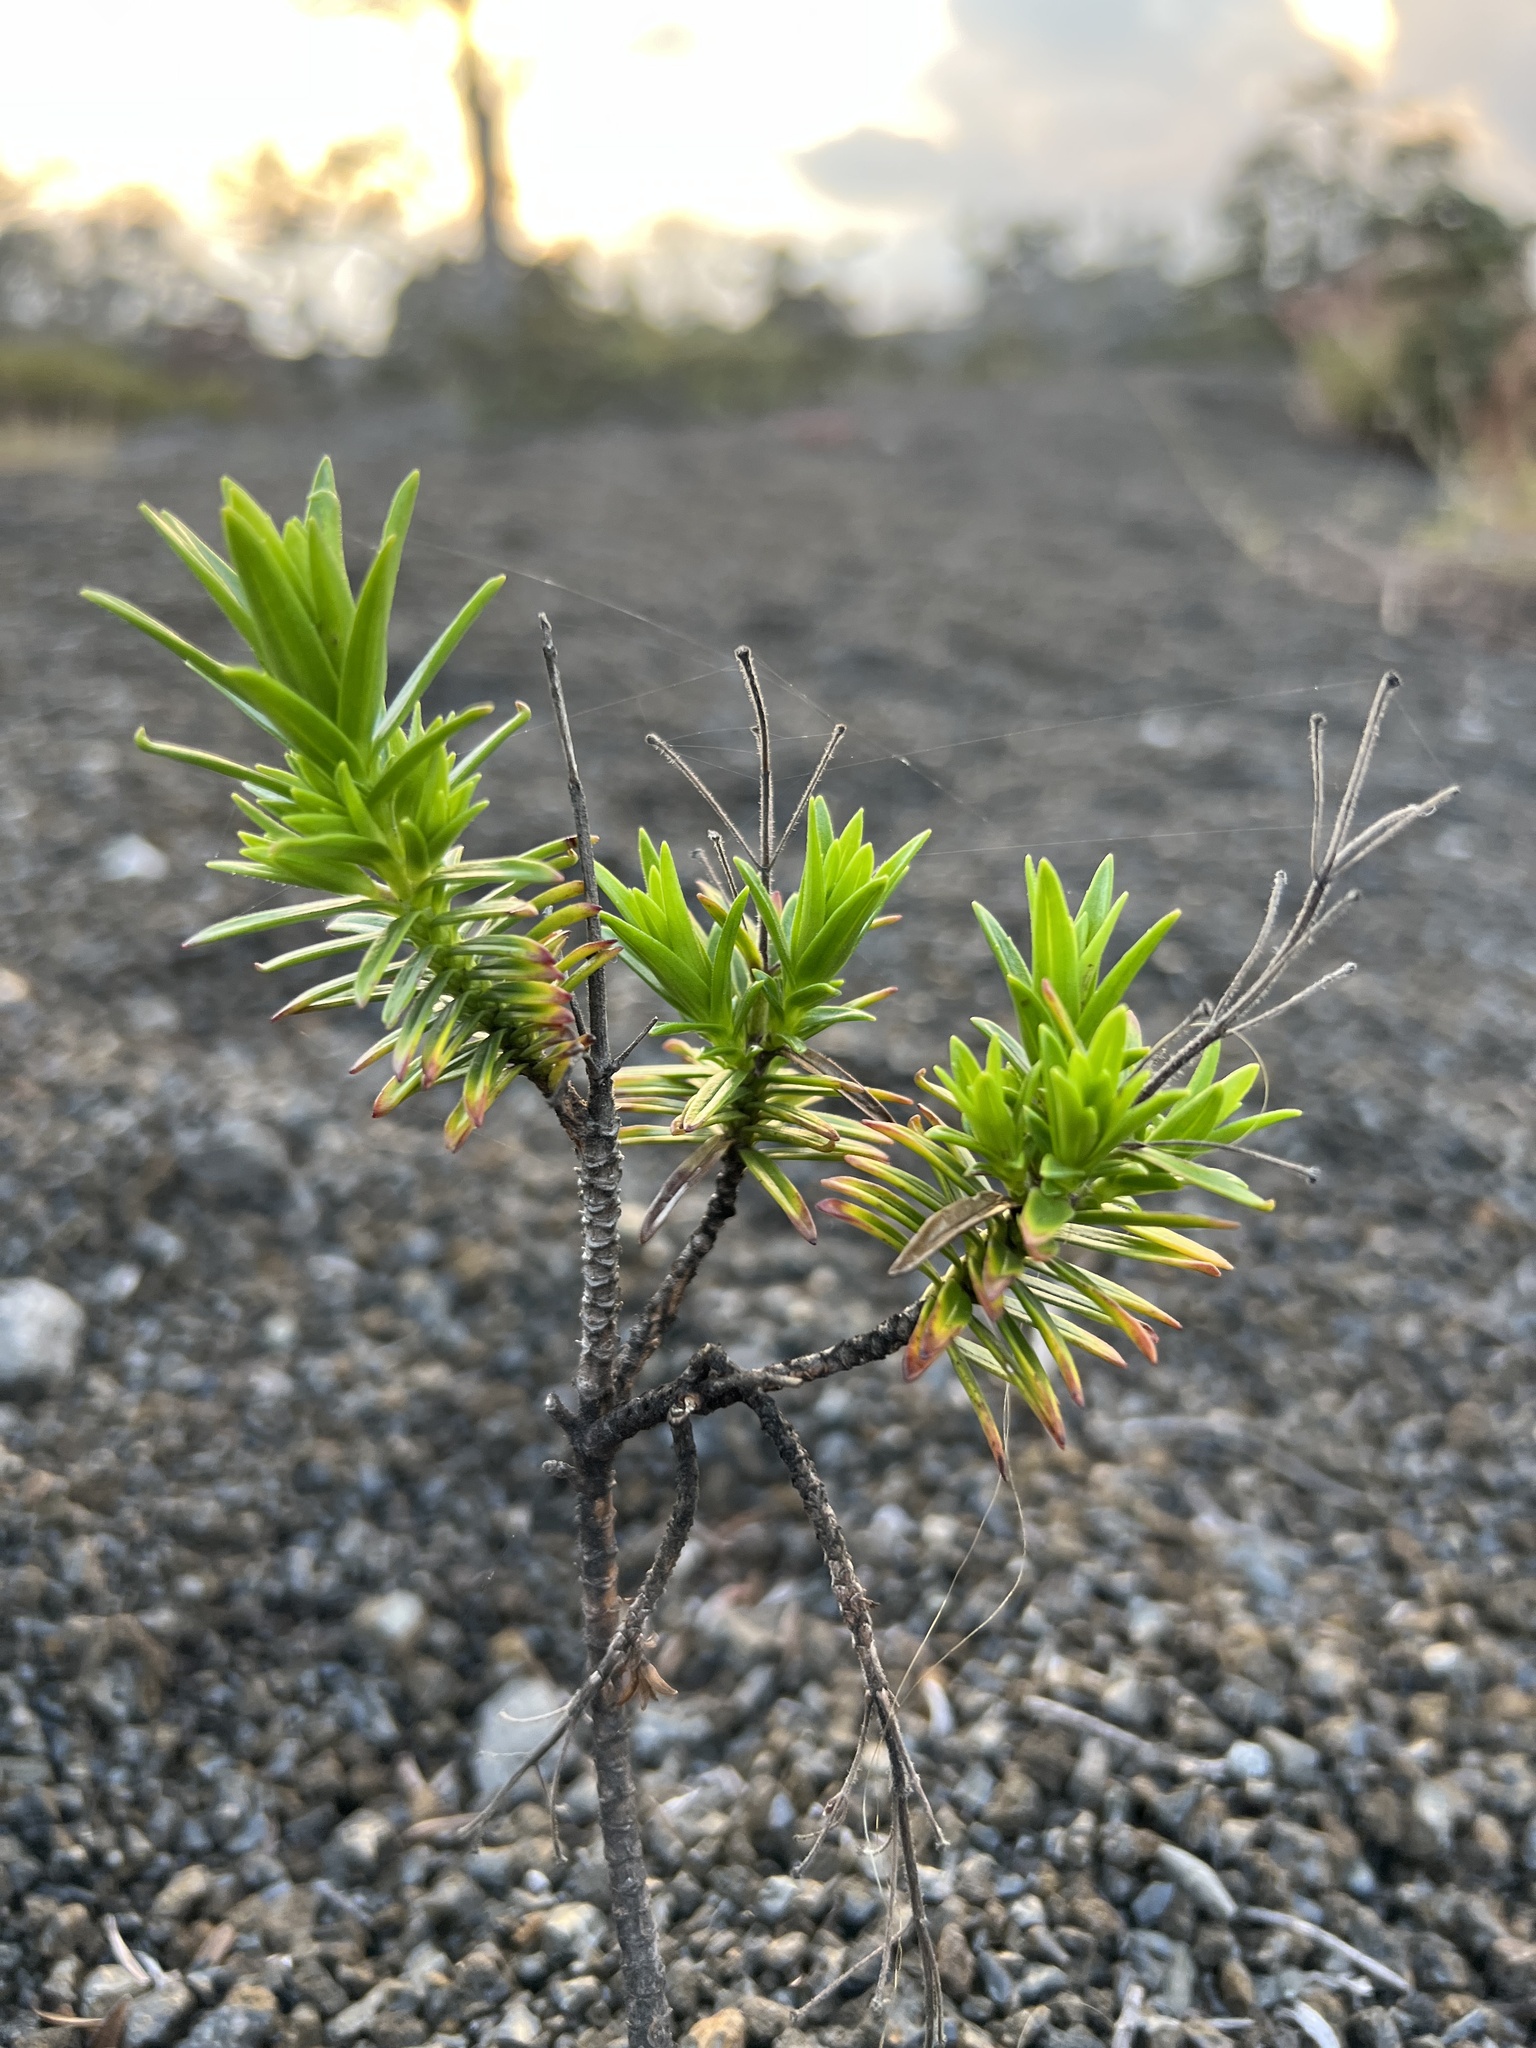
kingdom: Plantae
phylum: Tracheophyta
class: Magnoliopsida
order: Asterales
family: Asteraceae
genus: Dubautia
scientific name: Dubautia ciliolata
